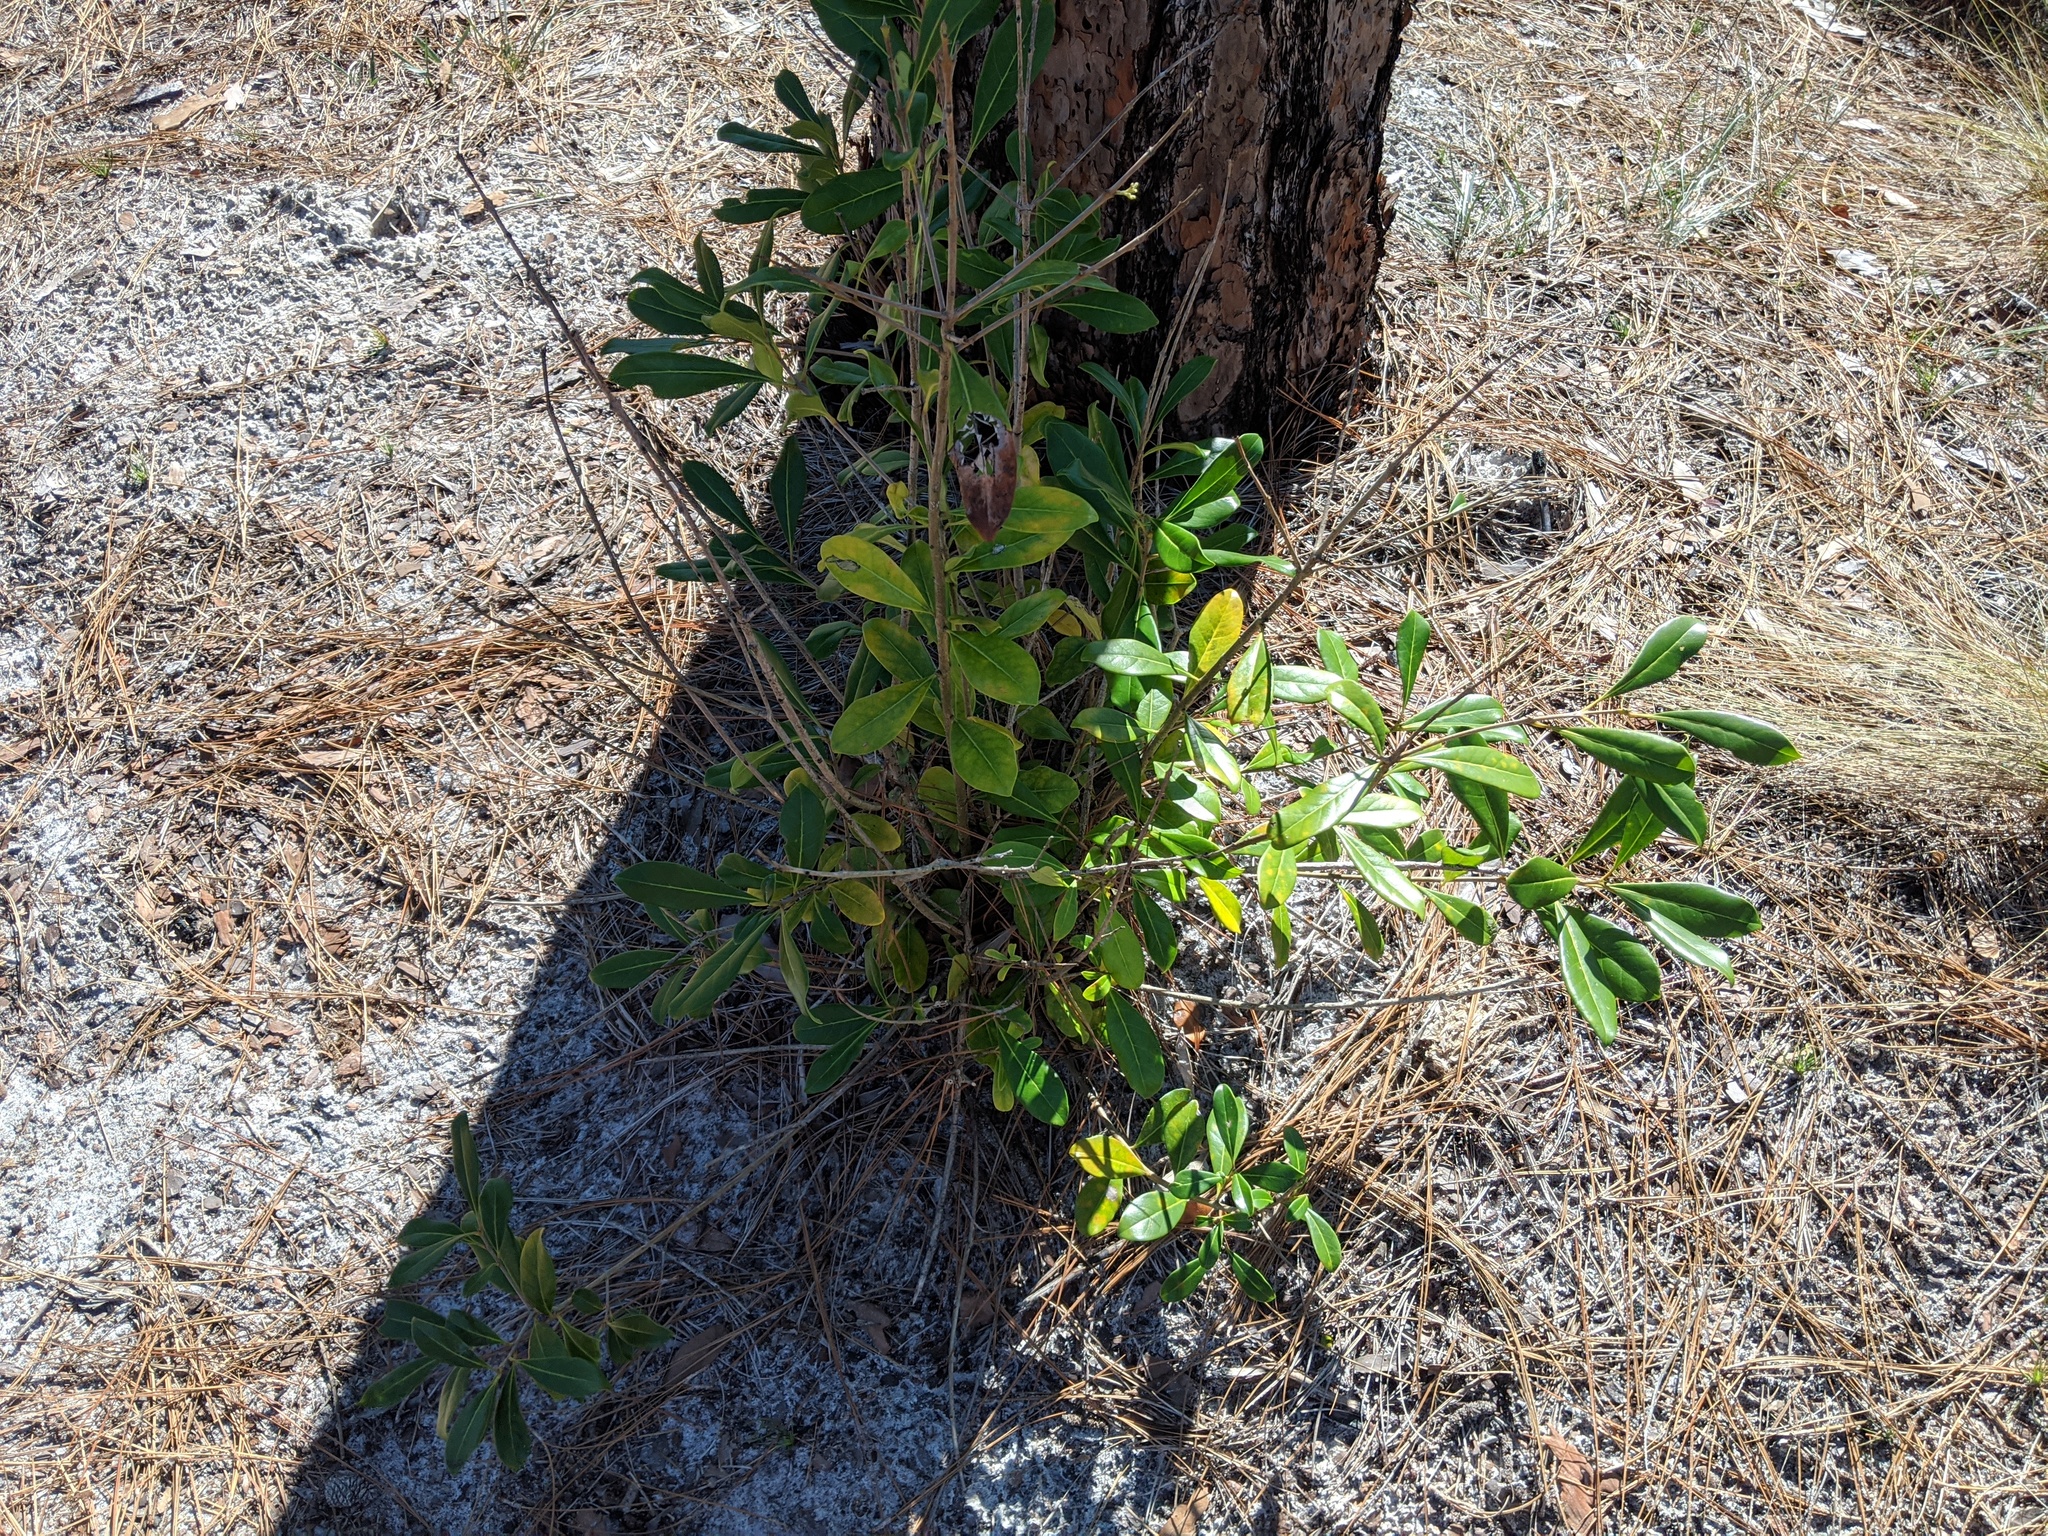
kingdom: Plantae
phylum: Tracheophyta
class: Magnoliopsida
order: Lamiales
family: Oleaceae
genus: Cartrema
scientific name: Cartrema americana
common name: Devilwood
